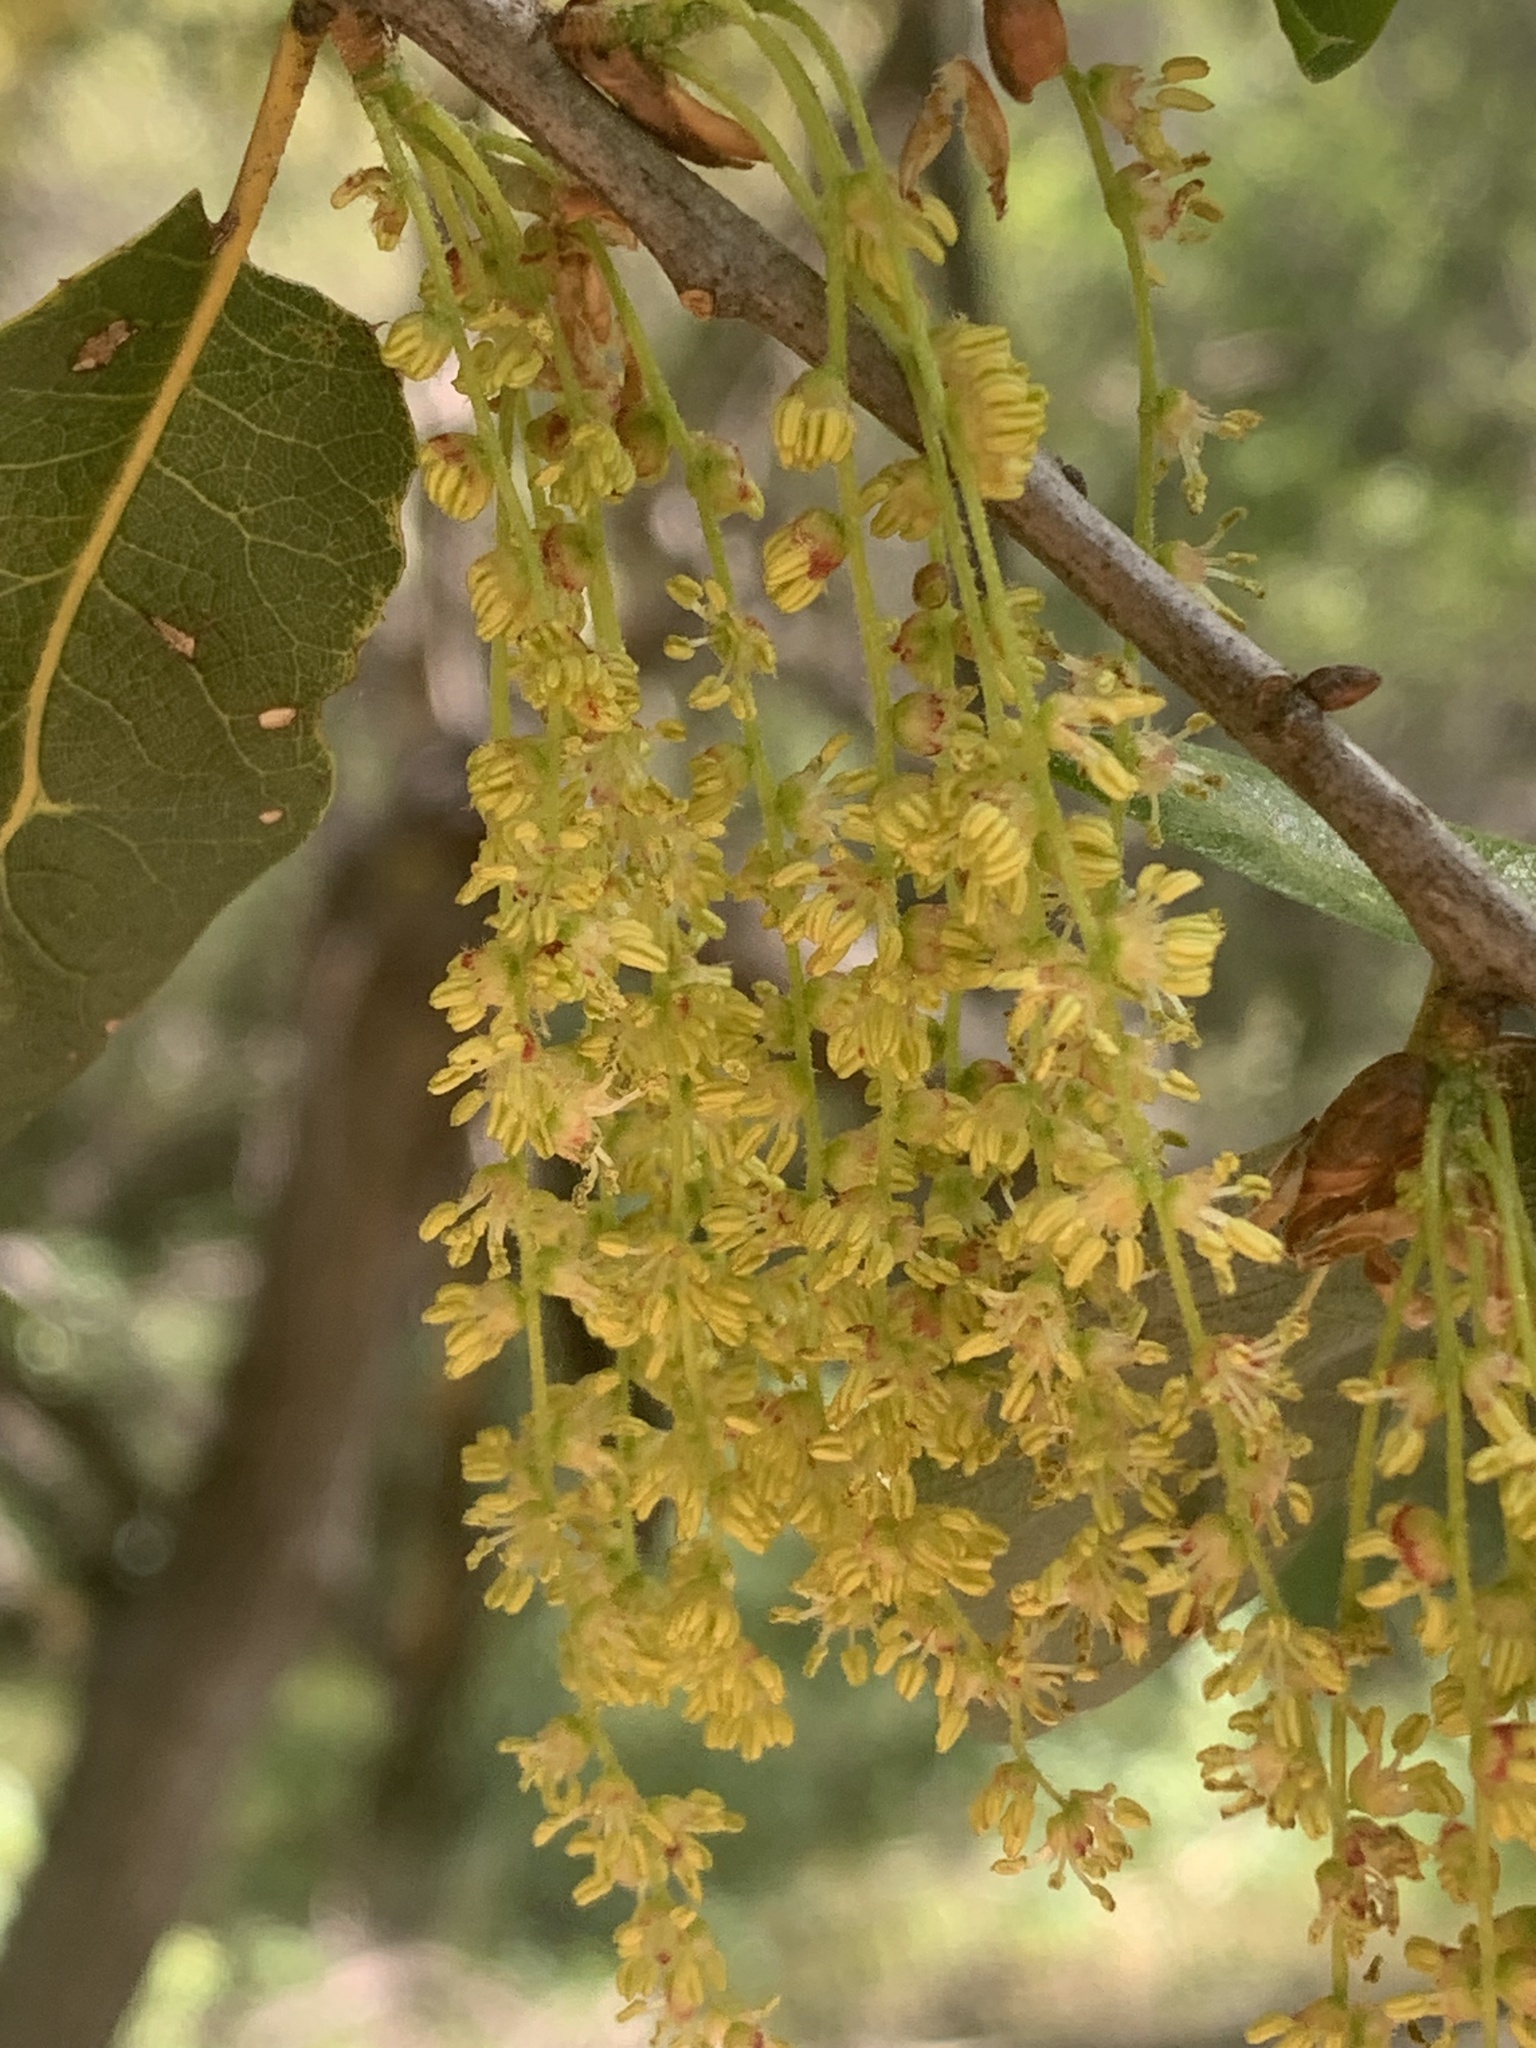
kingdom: Plantae
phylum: Tracheophyta
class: Magnoliopsida
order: Fagales
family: Fagaceae
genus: Quercus
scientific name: Quercus wislizeni
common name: Interior live oak
